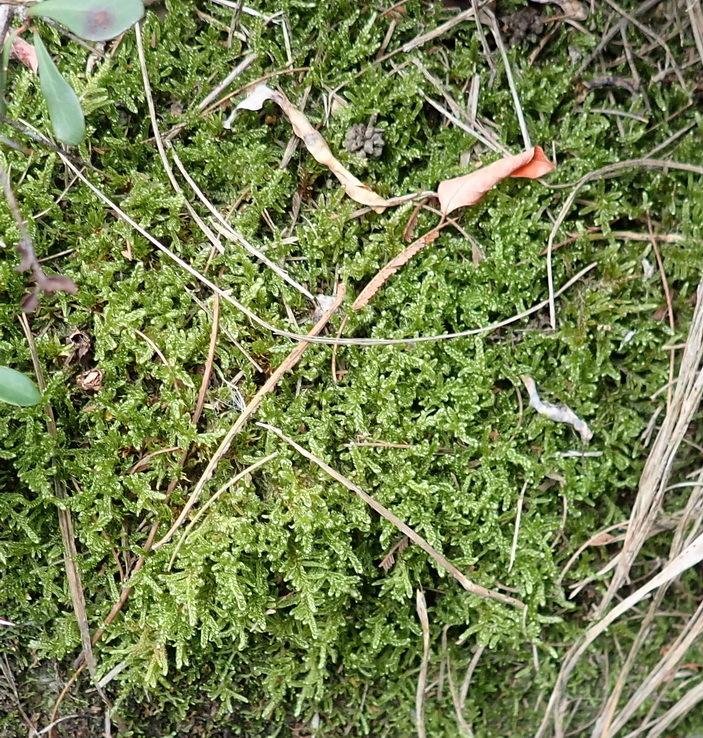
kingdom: Plantae
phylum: Bryophyta
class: Bryopsida
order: Hypnales
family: Hypnaceae
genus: Hypnum
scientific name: Hypnum cupressiforme
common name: Cypress-leaved plait-moss
